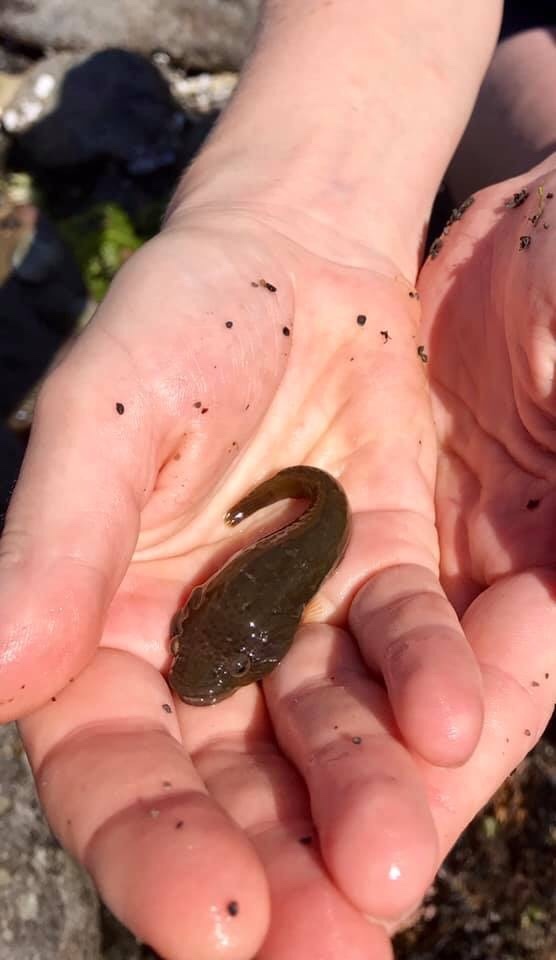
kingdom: Animalia
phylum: Chordata
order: Gobiesociformes
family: Gobiesocidae
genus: Trachelochismus
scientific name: Trachelochismus pinnulatus
